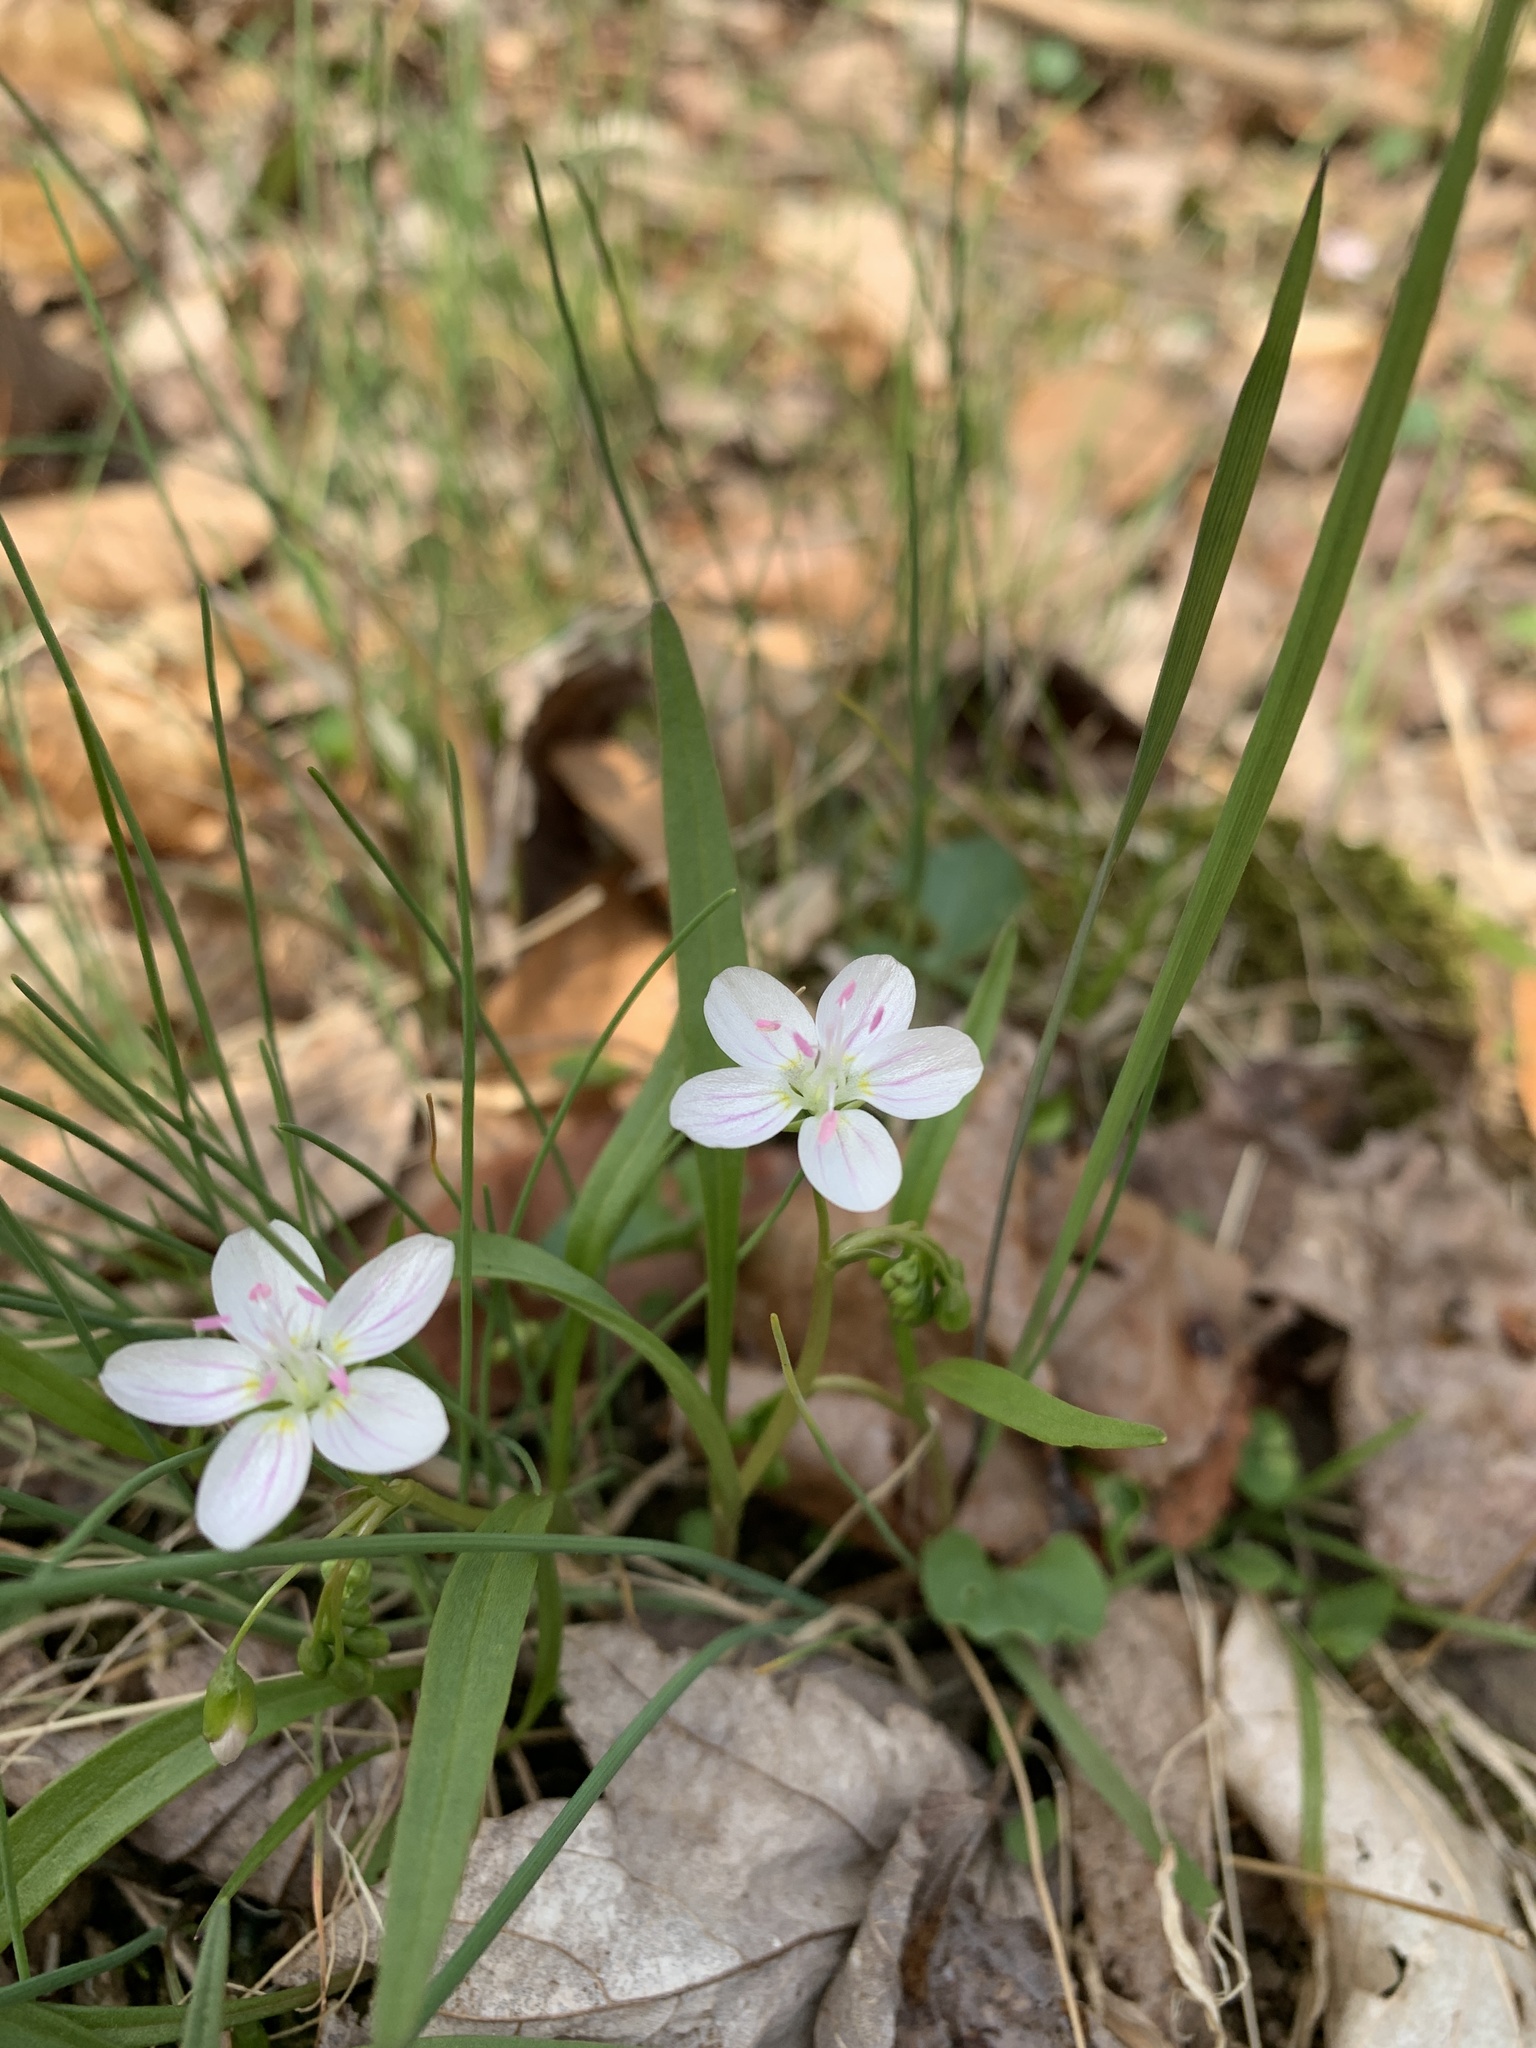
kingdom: Plantae
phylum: Tracheophyta
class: Magnoliopsida
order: Caryophyllales
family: Montiaceae
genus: Claytonia
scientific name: Claytonia virginica
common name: Virginia springbeauty
